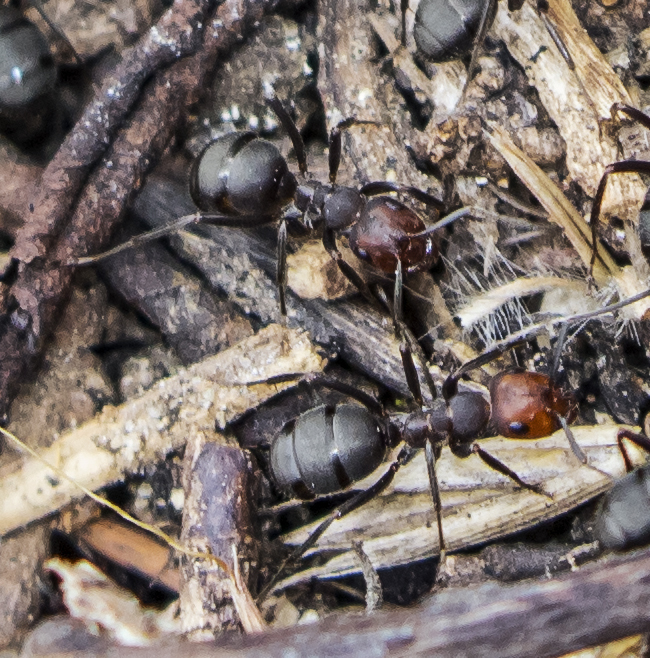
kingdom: Animalia
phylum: Arthropoda
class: Insecta
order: Hymenoptera
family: Formicidae
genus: Formica
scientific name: Formica obscuripes
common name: Western thatching ant
